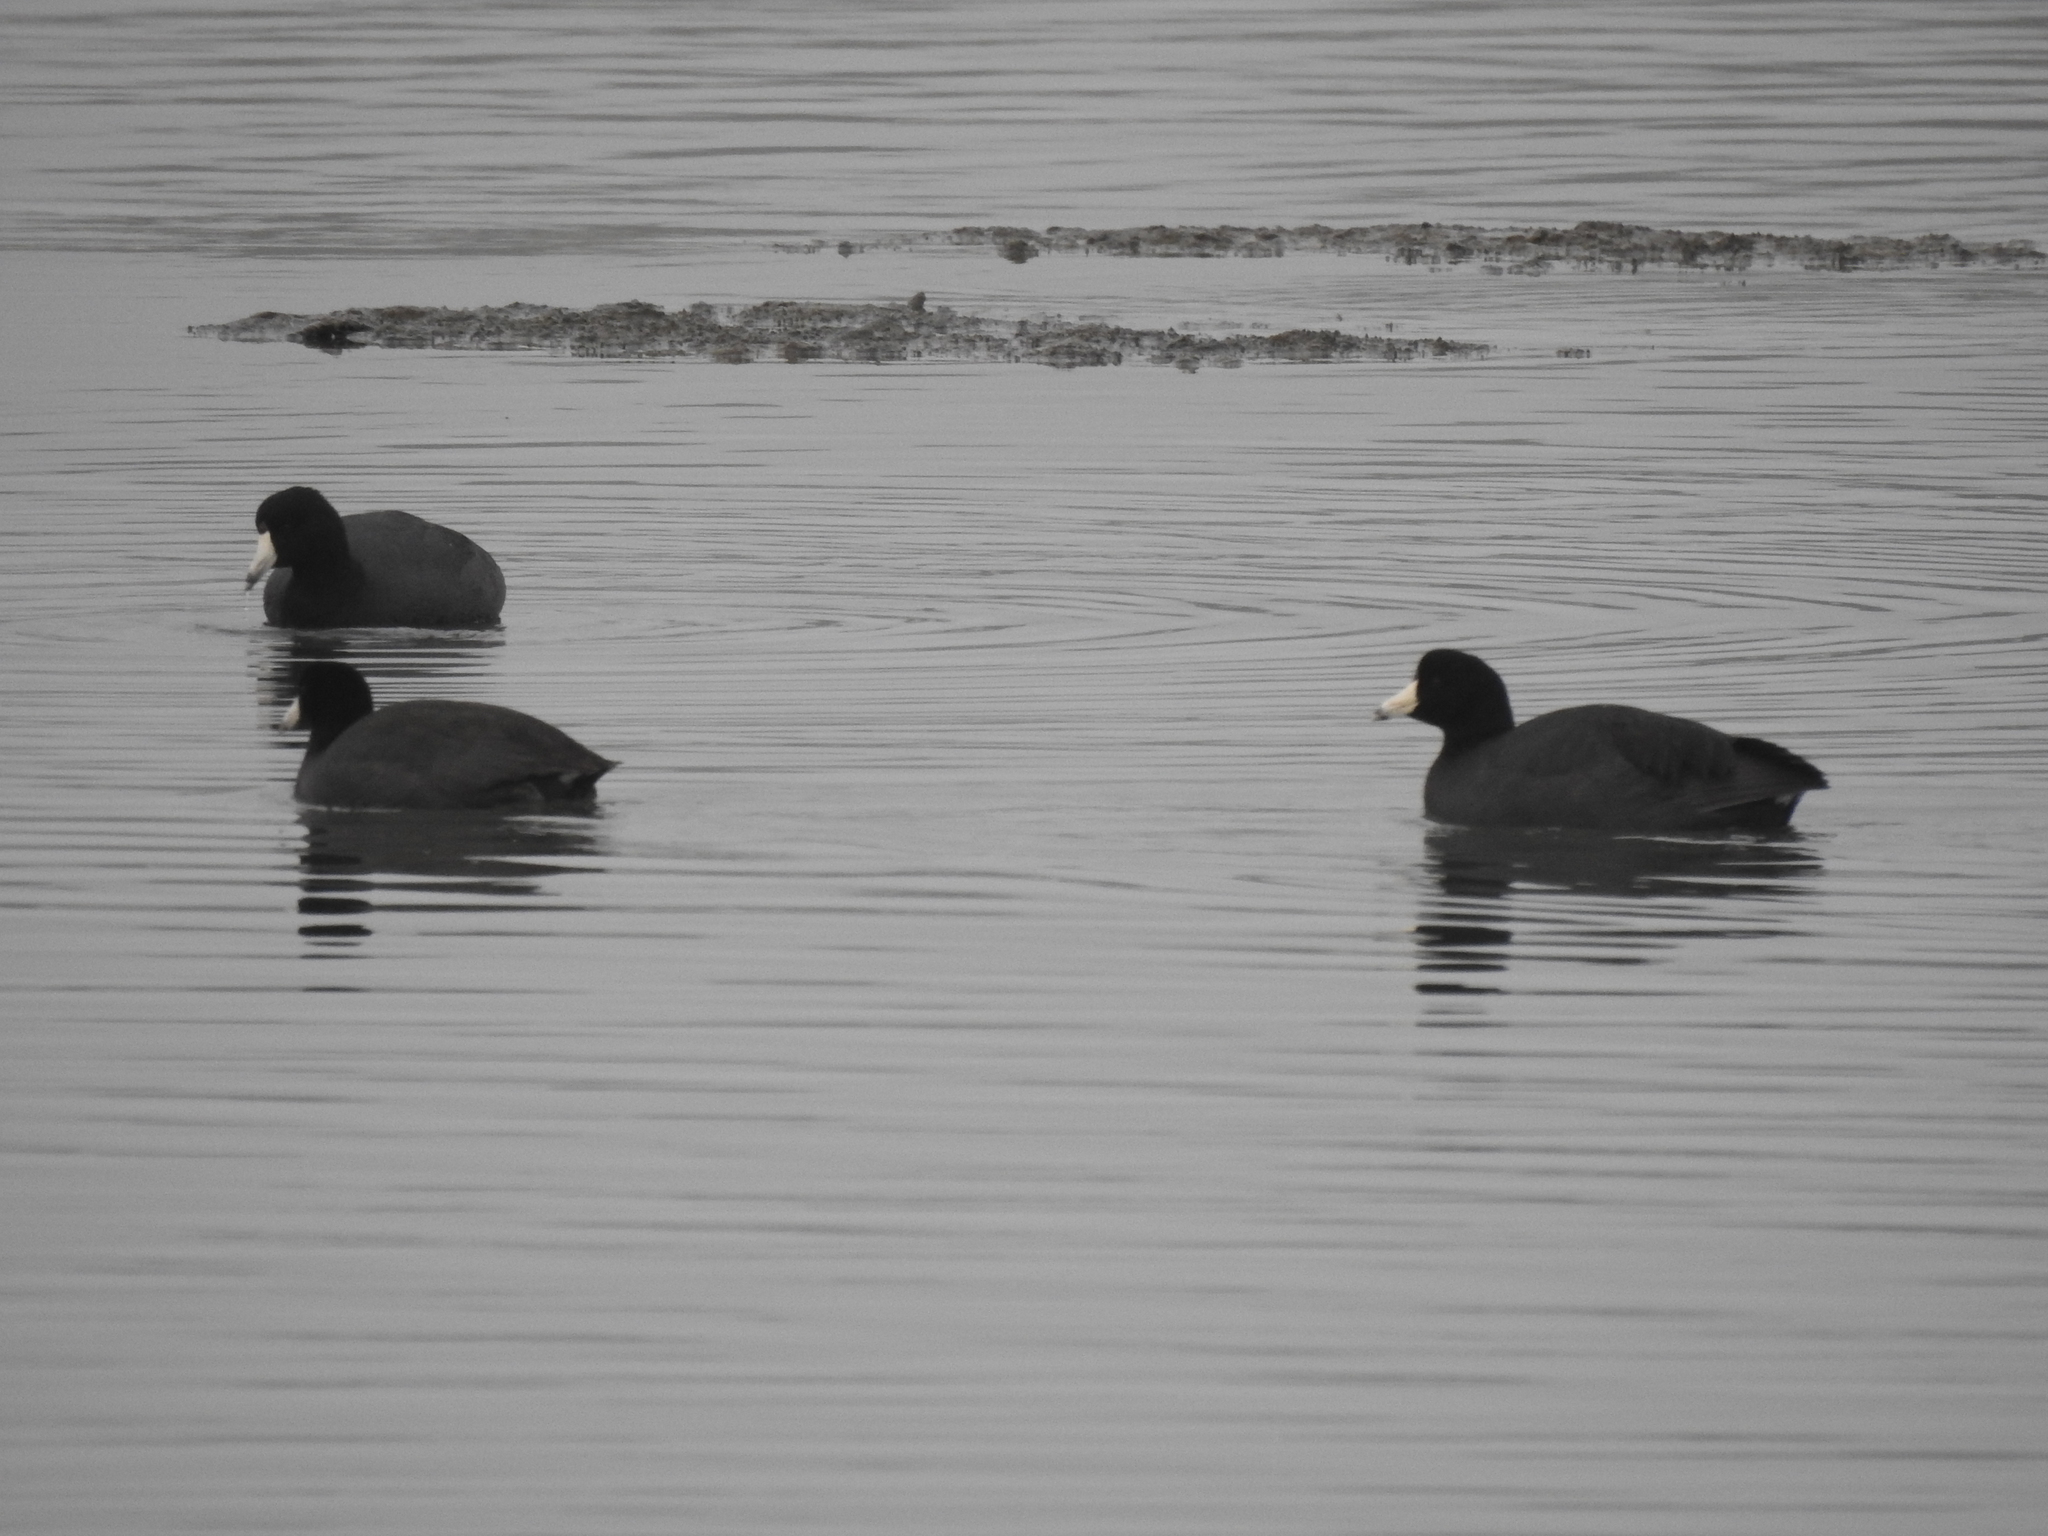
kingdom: Animalia
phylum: Chordata
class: Aves
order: Gruiformes
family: Rallidae
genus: Fulica
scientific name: Fulica americana
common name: American coot
